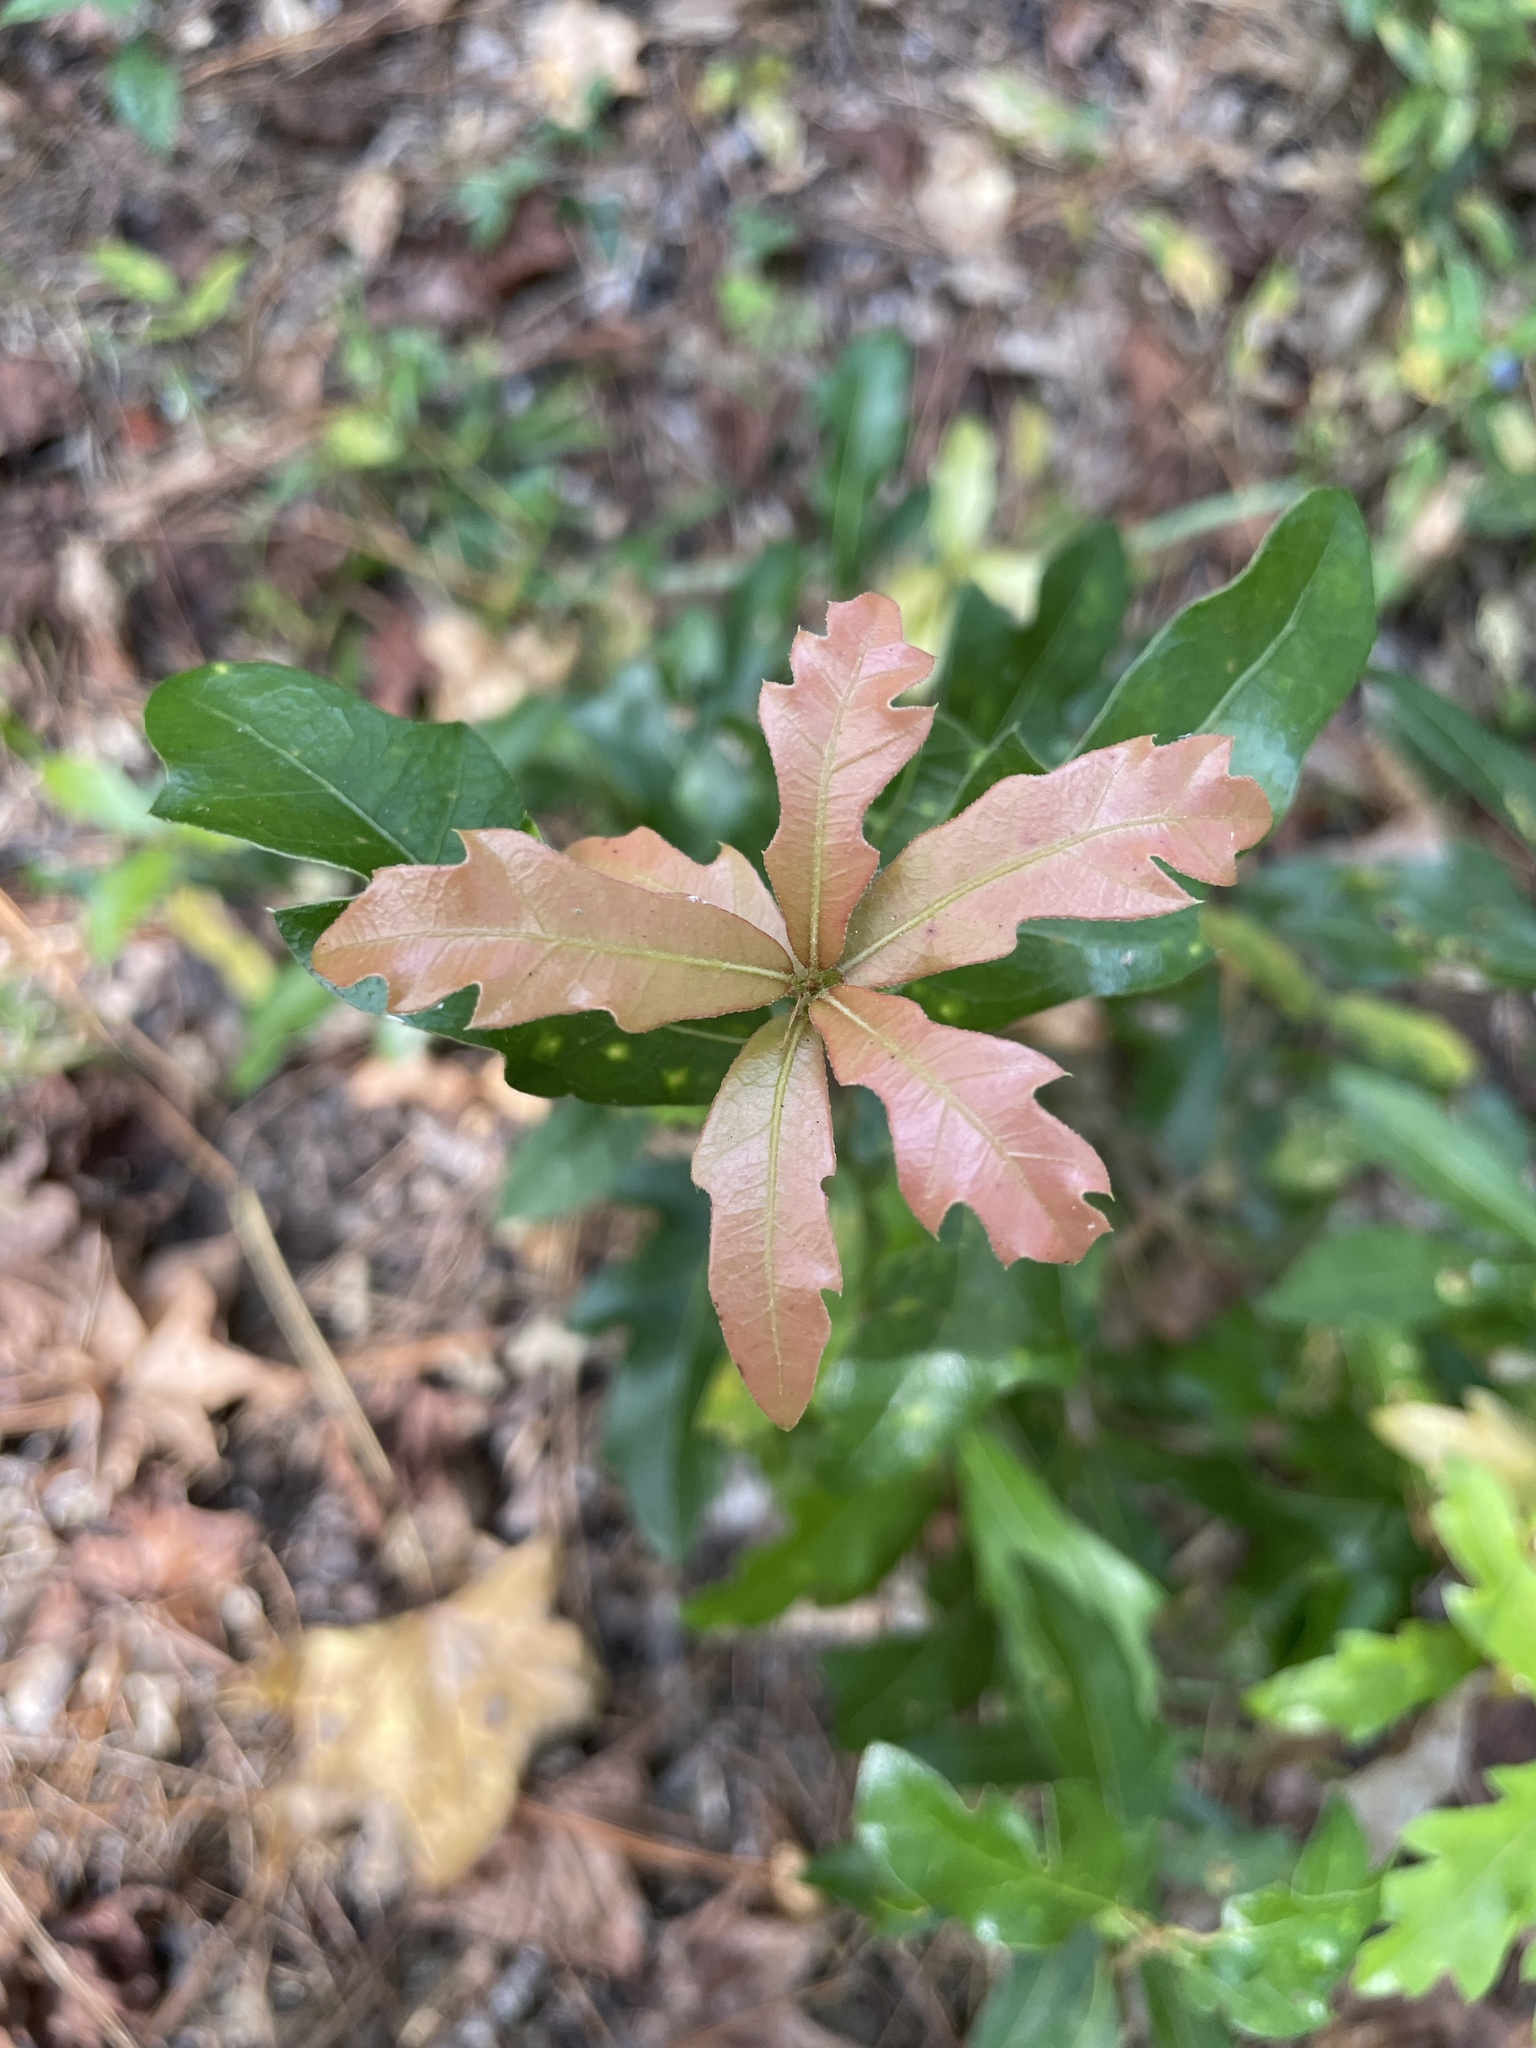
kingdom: Plantae
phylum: Tracheophyta
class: Magnoliopsida
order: Fagales
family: Fagaceae
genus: Quercus
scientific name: Quercus hemisphaerica
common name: Darlington oak
